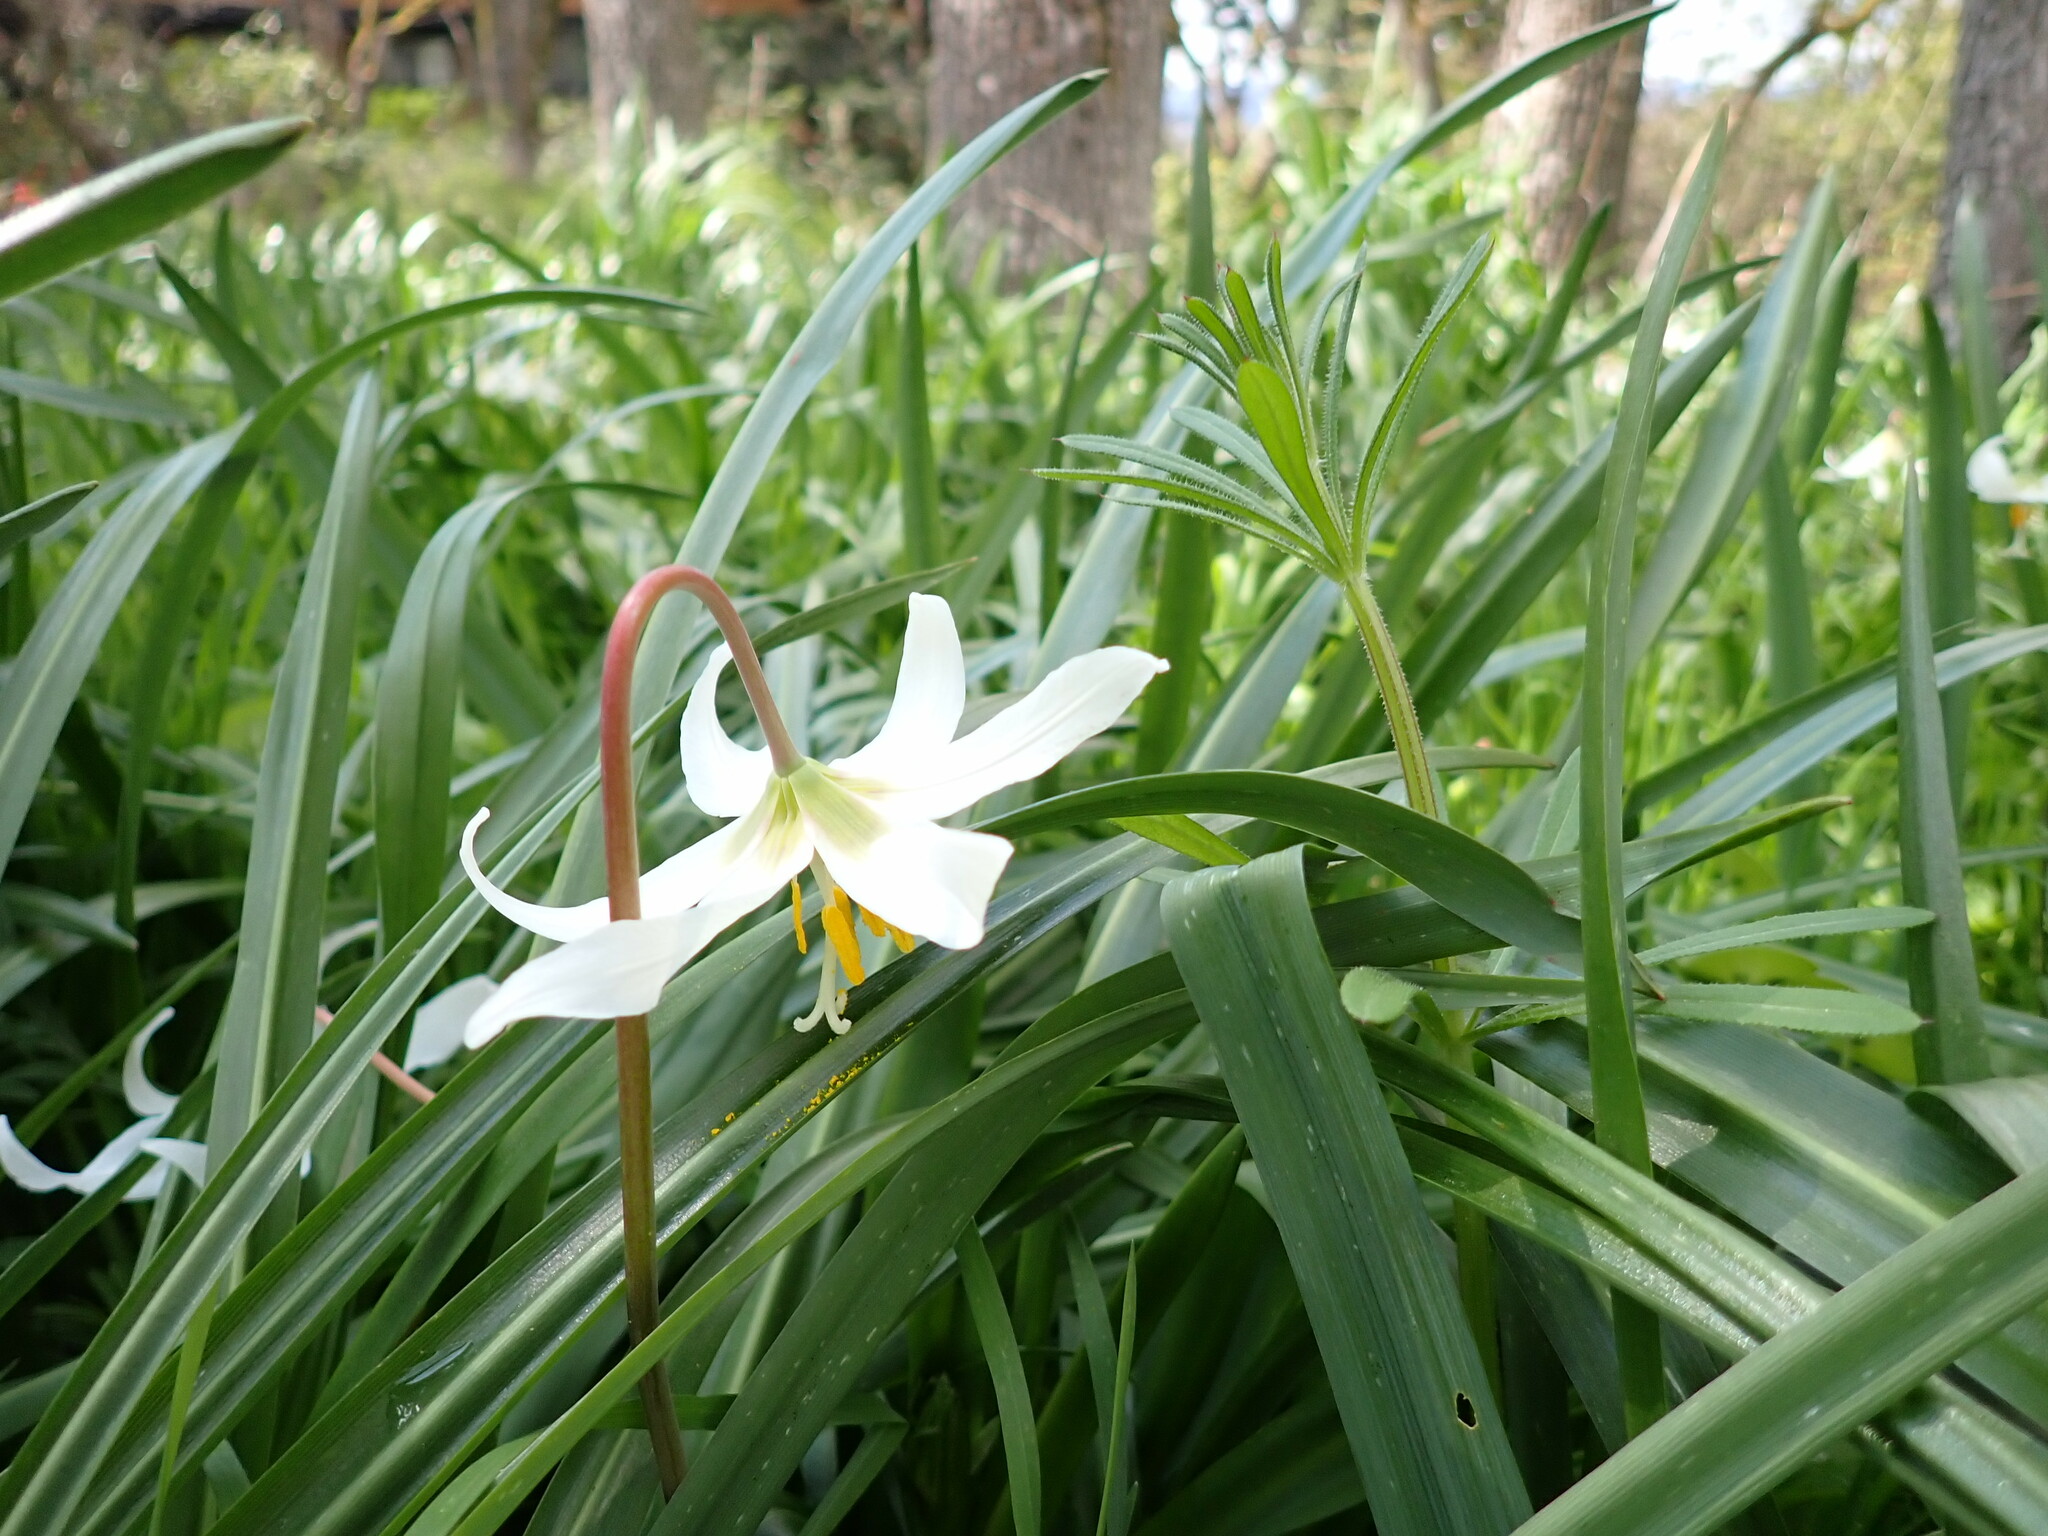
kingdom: Plantae
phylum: Tracheophyta
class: Liliopsida
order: Liliales
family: Liliaceae
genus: Erythronium
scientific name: Erythronium oregonum
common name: Giant adder's-tongue
